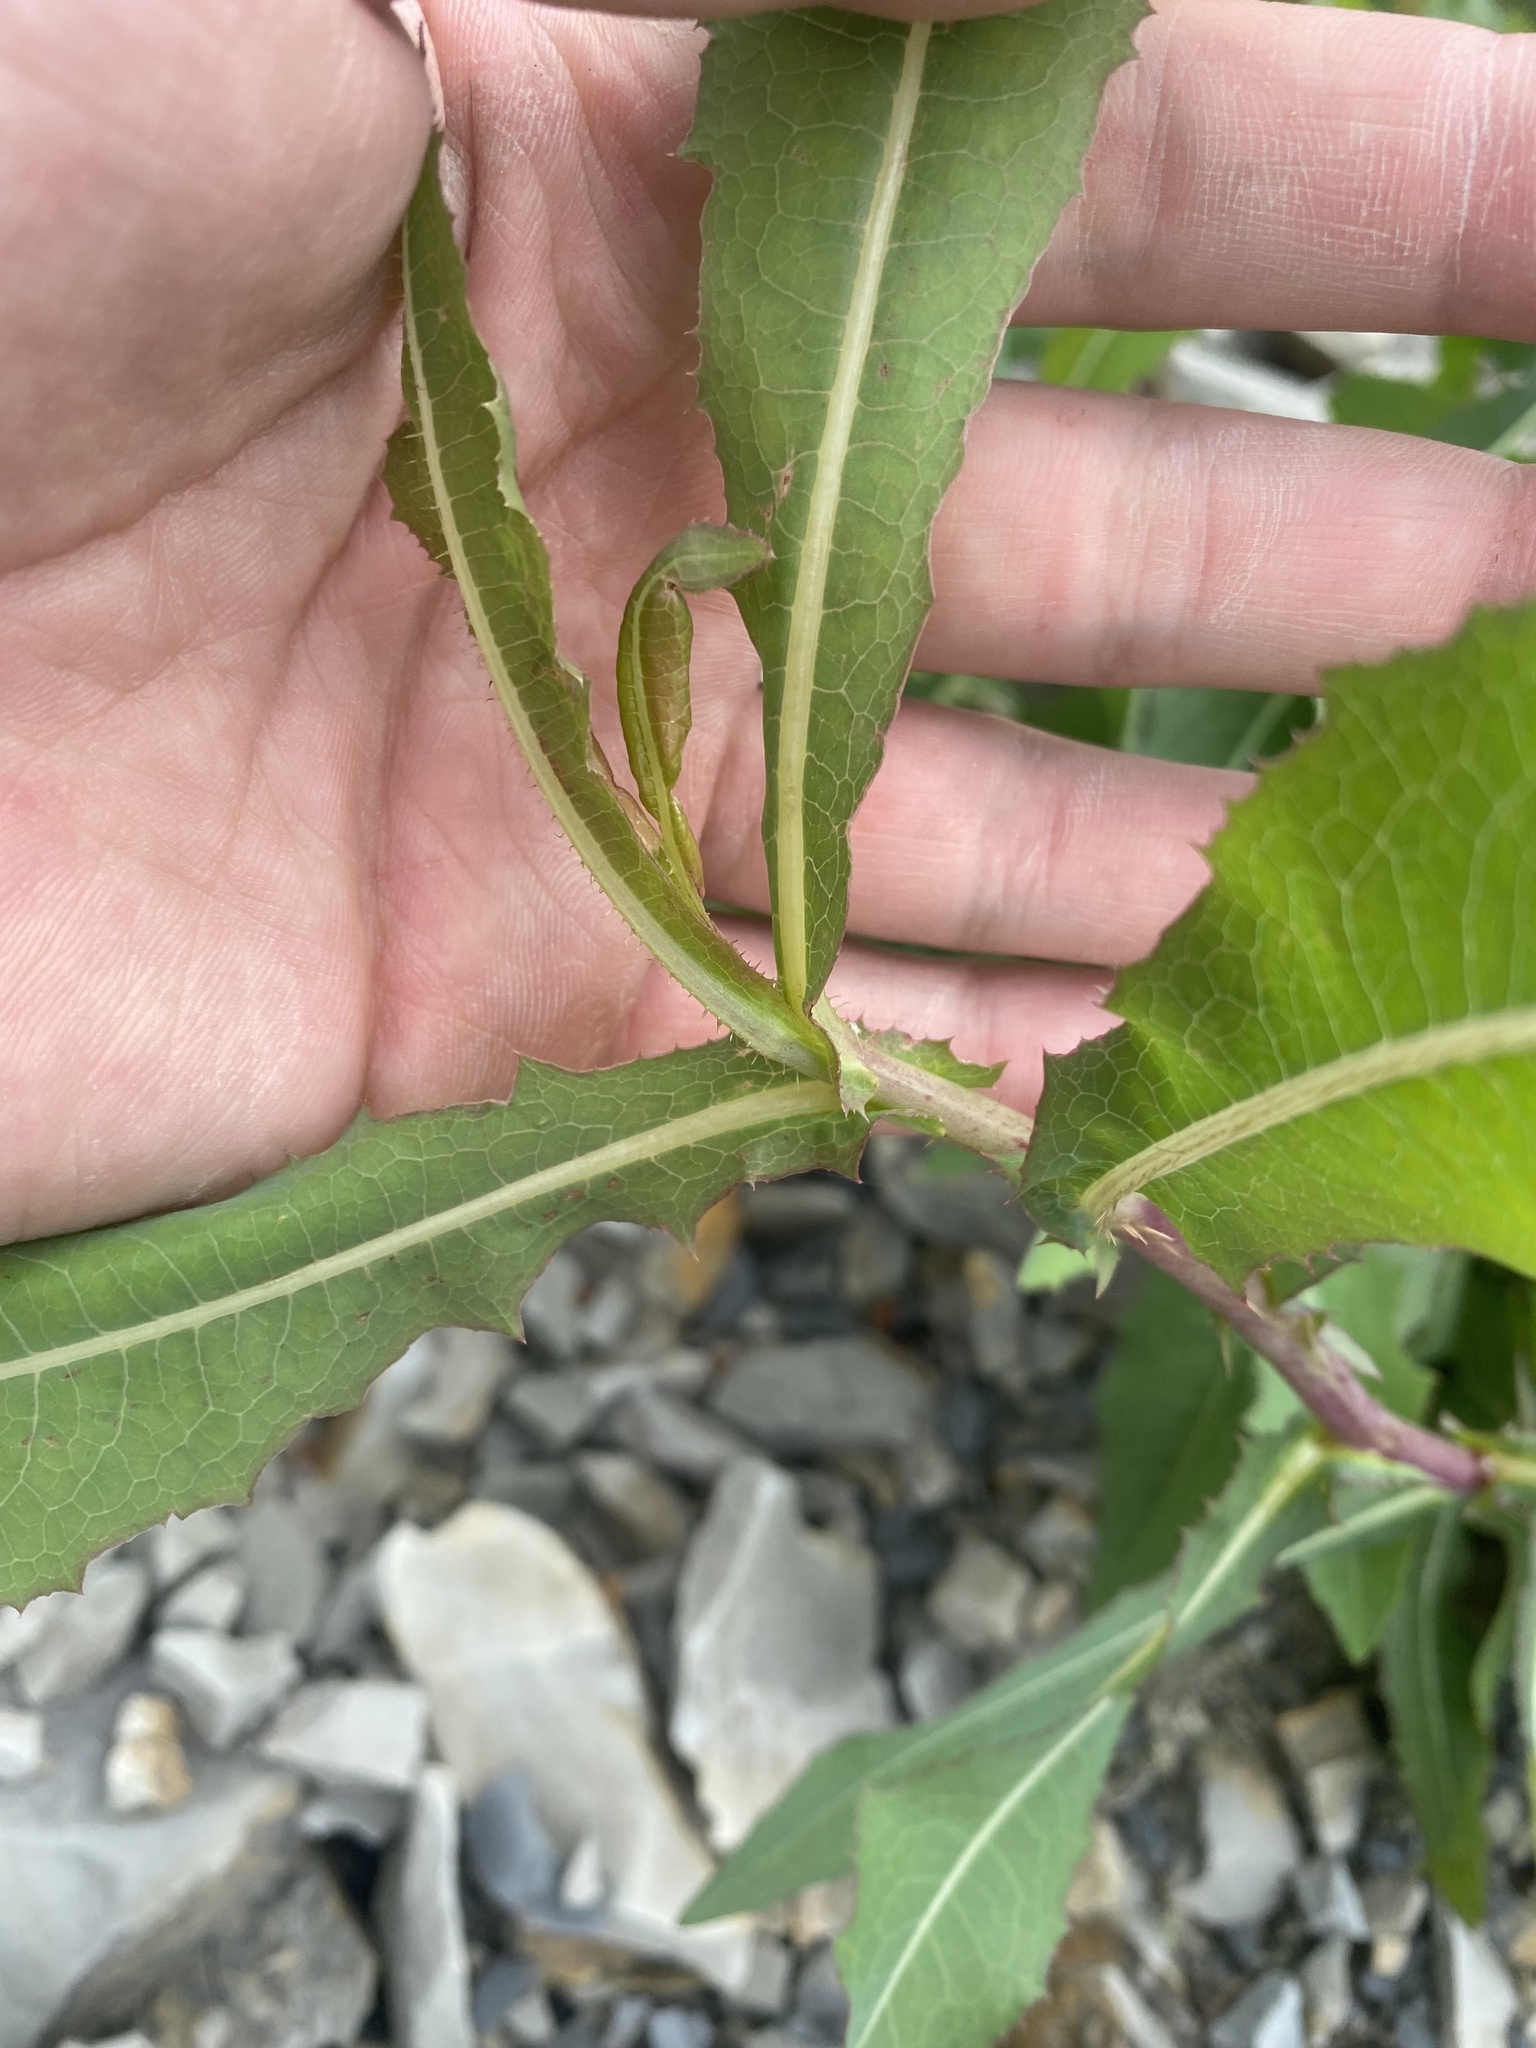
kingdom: Plantae
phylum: Tracheophyta
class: Magnoliopsida
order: Asterales
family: Asteraceae
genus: Lactuca
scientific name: Lactuca serriola
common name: Prickly lettuce
